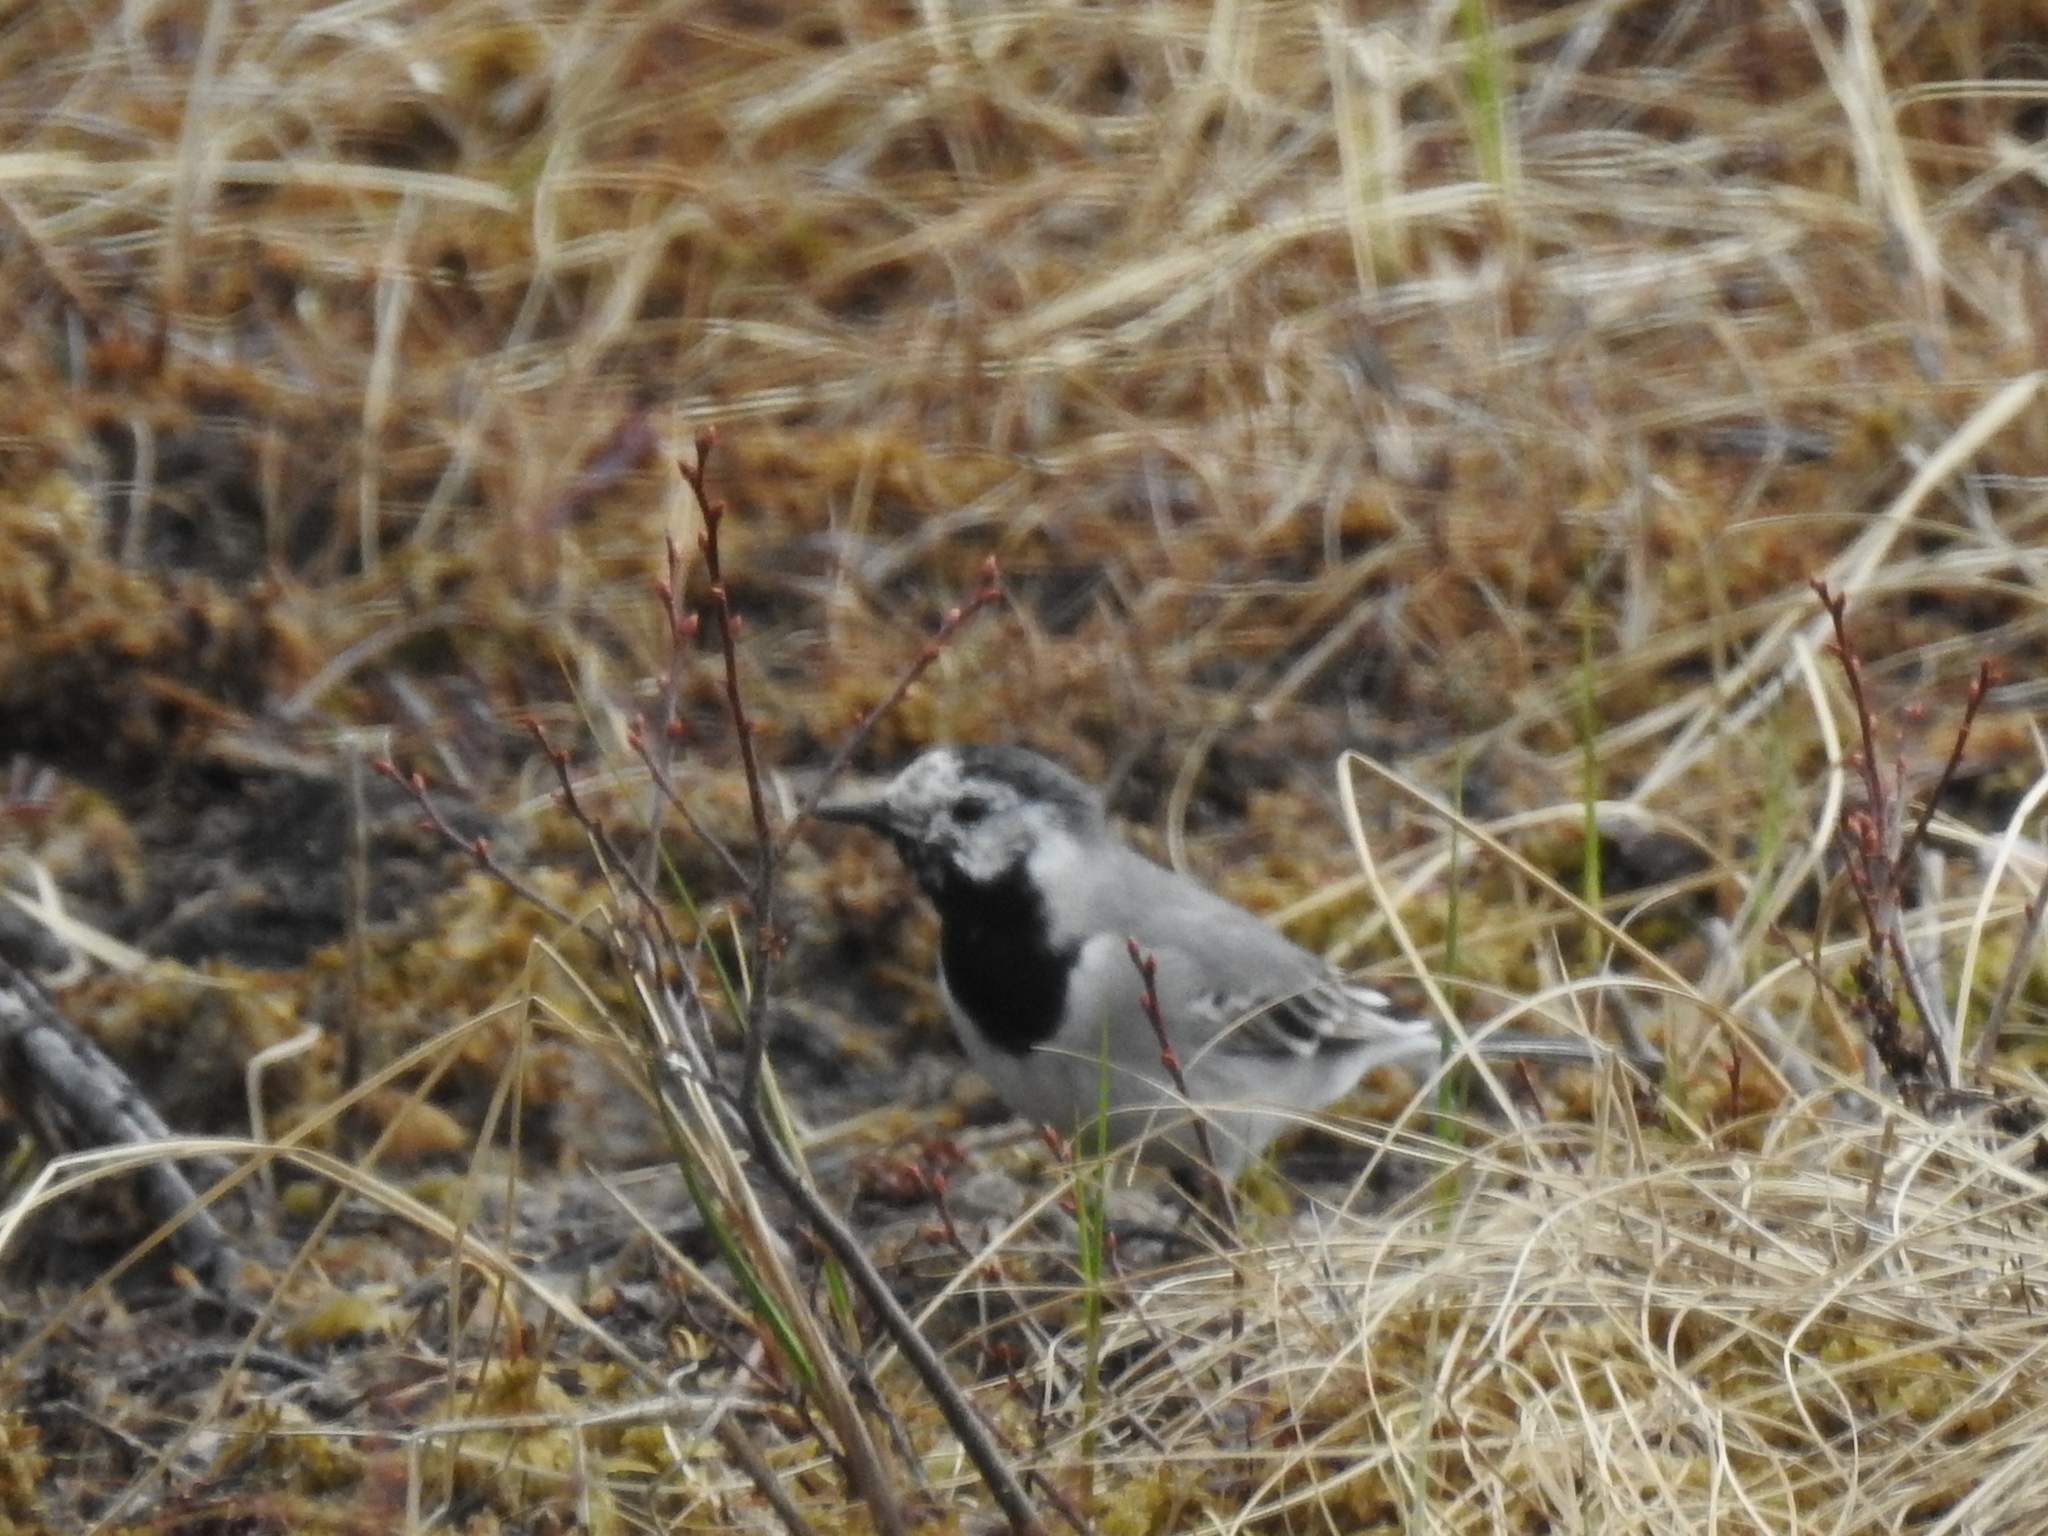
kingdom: Animalia
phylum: Chordata
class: Aves
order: Passeriformes
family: Motacillidae
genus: Motacilla
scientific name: Motacilla alba
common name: White wagtail
